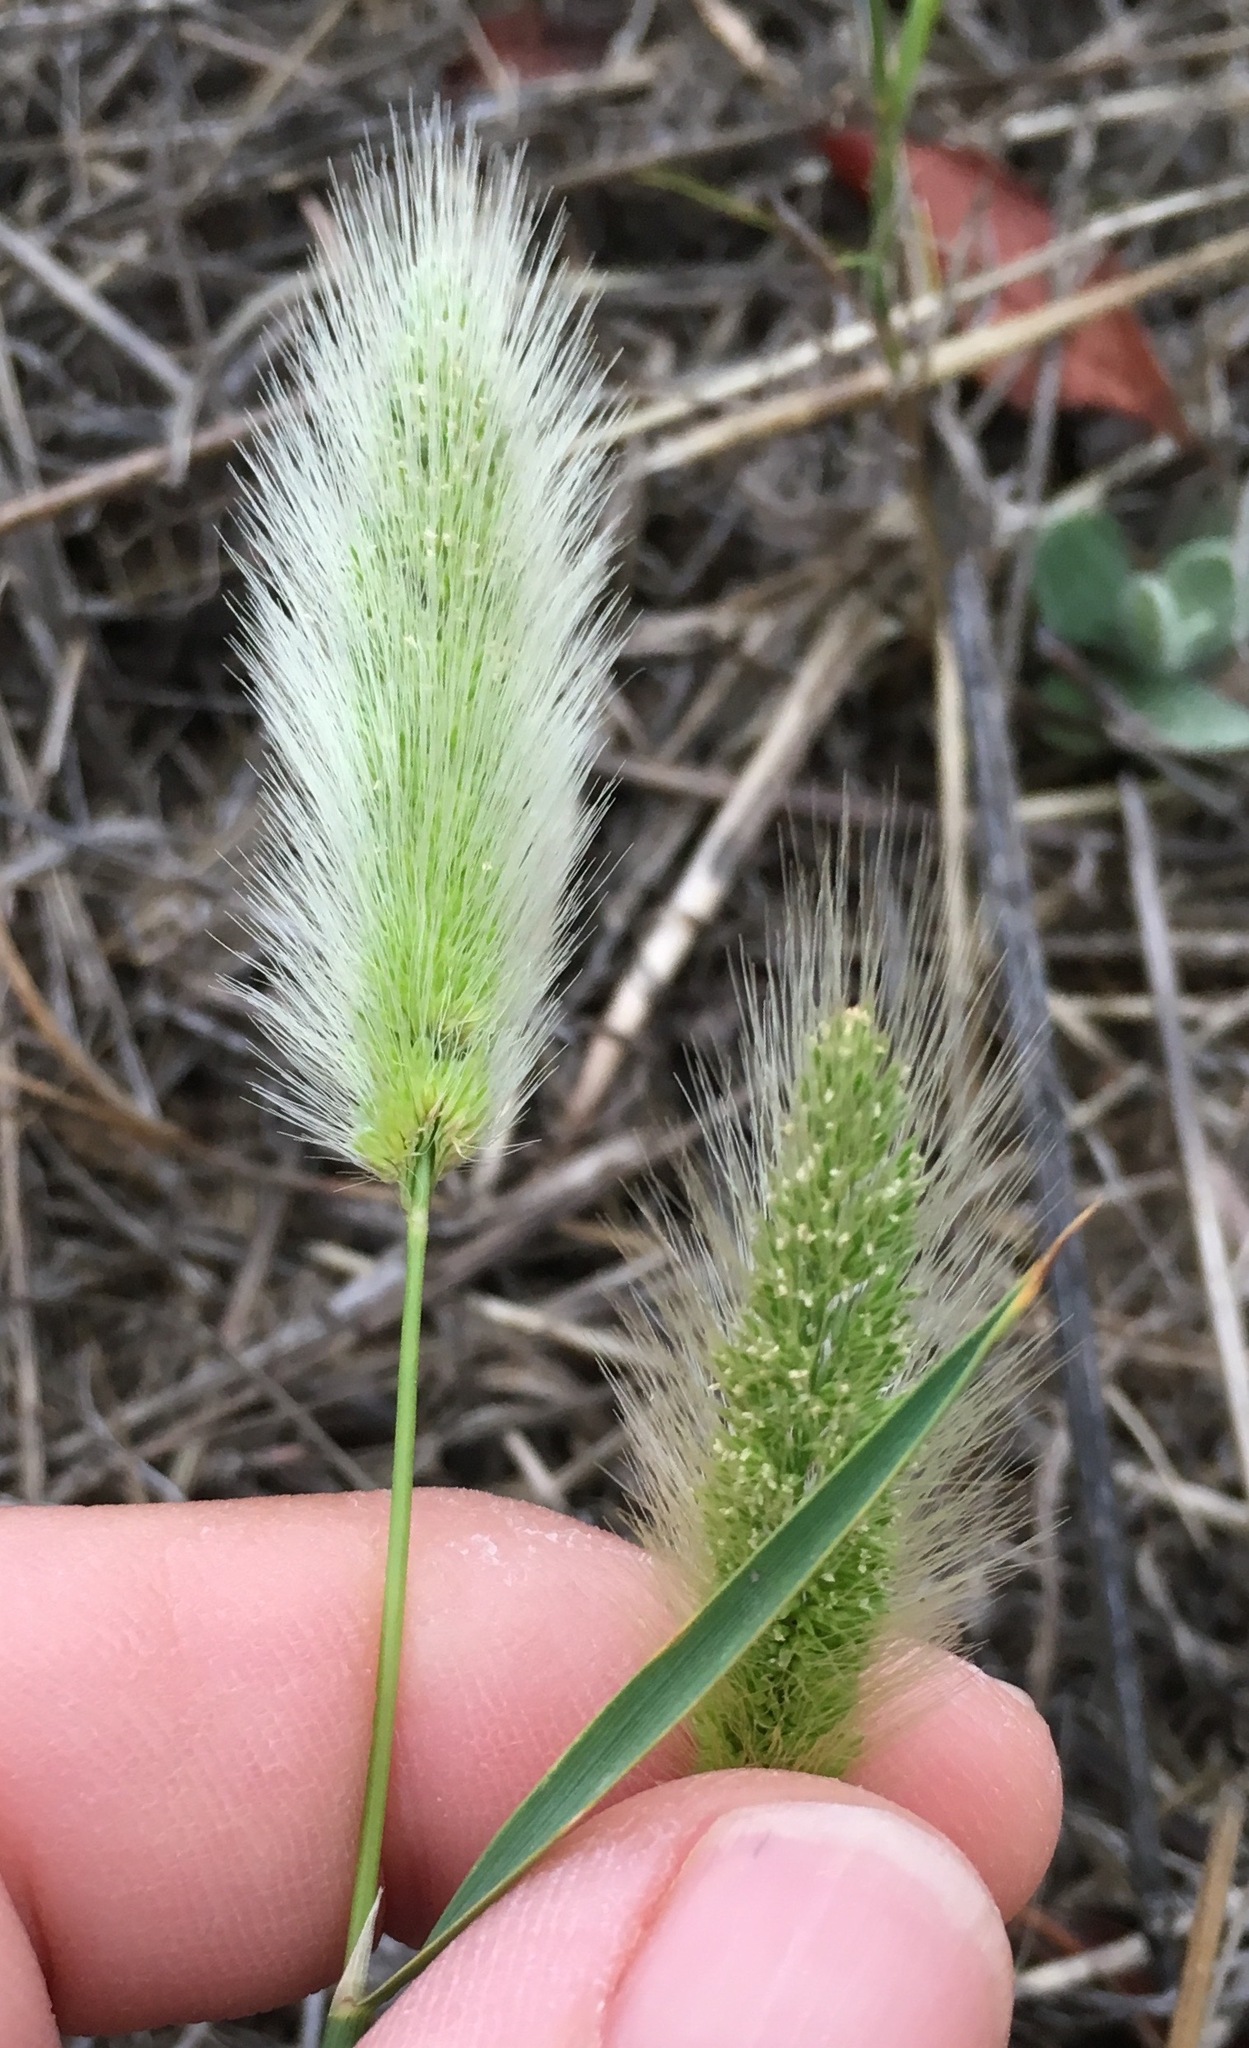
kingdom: Plantae
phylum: Tracheophyta
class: Liliopsida
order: Poales
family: Poaceae
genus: Polypogon
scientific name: Polypogon monspeliensis
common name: Annual rabbitsfoot grass
